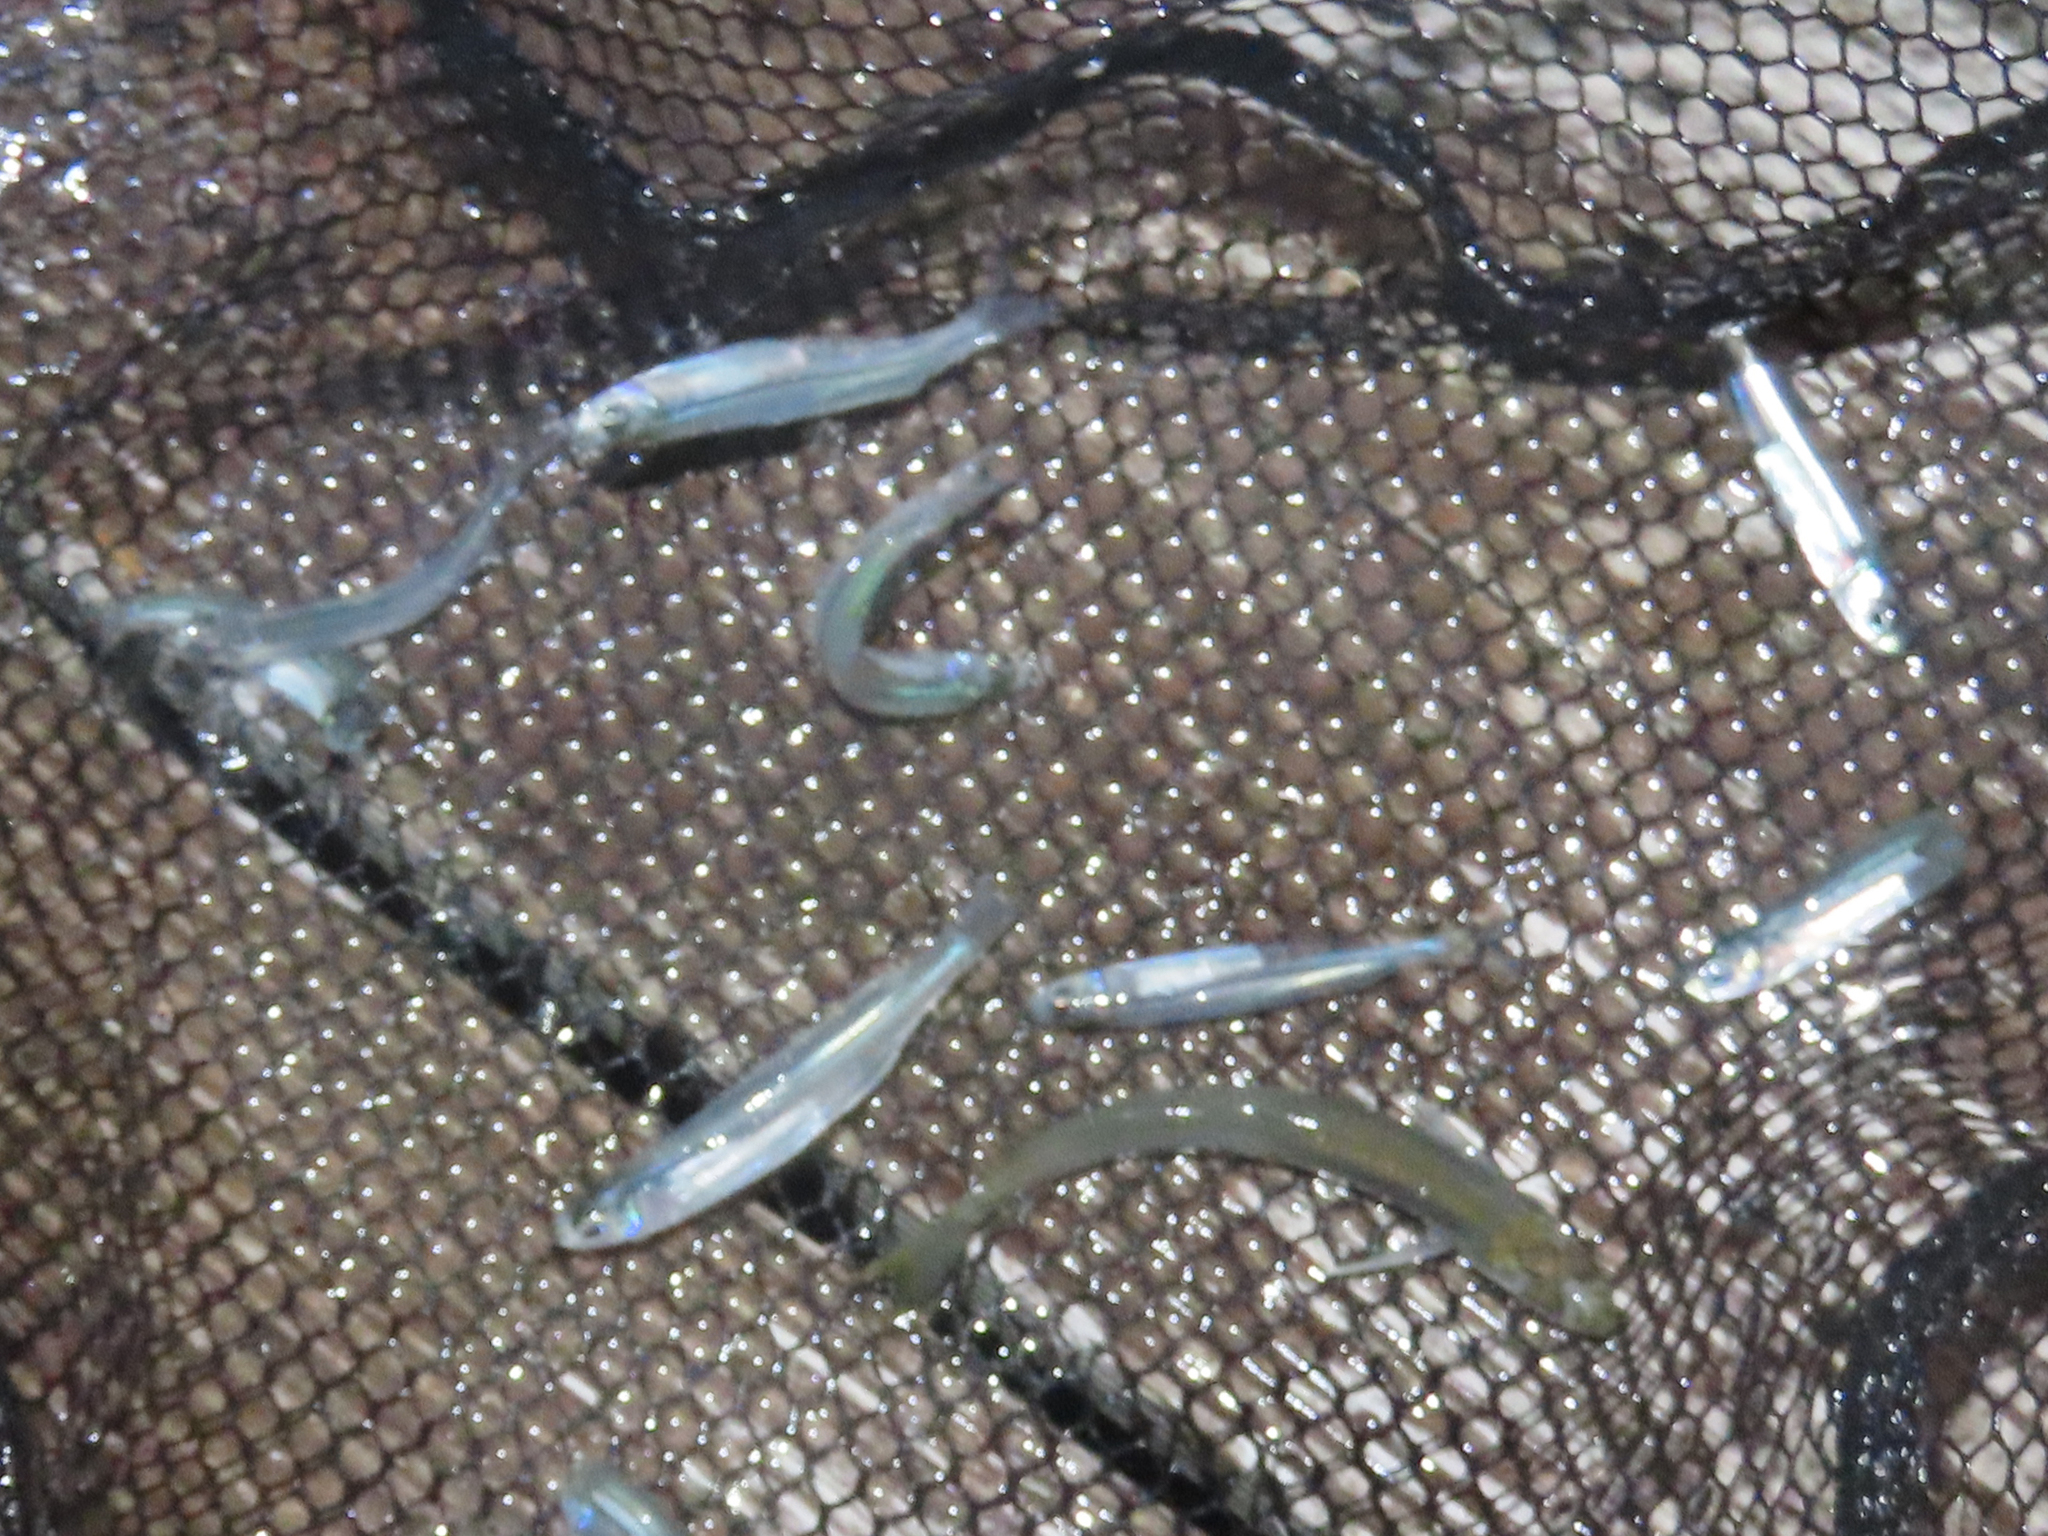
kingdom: Animalia
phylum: Chordata
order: Atheriniformes
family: Atherinopsidae
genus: Menidia
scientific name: Menidia menidia
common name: Atlantic silverside
